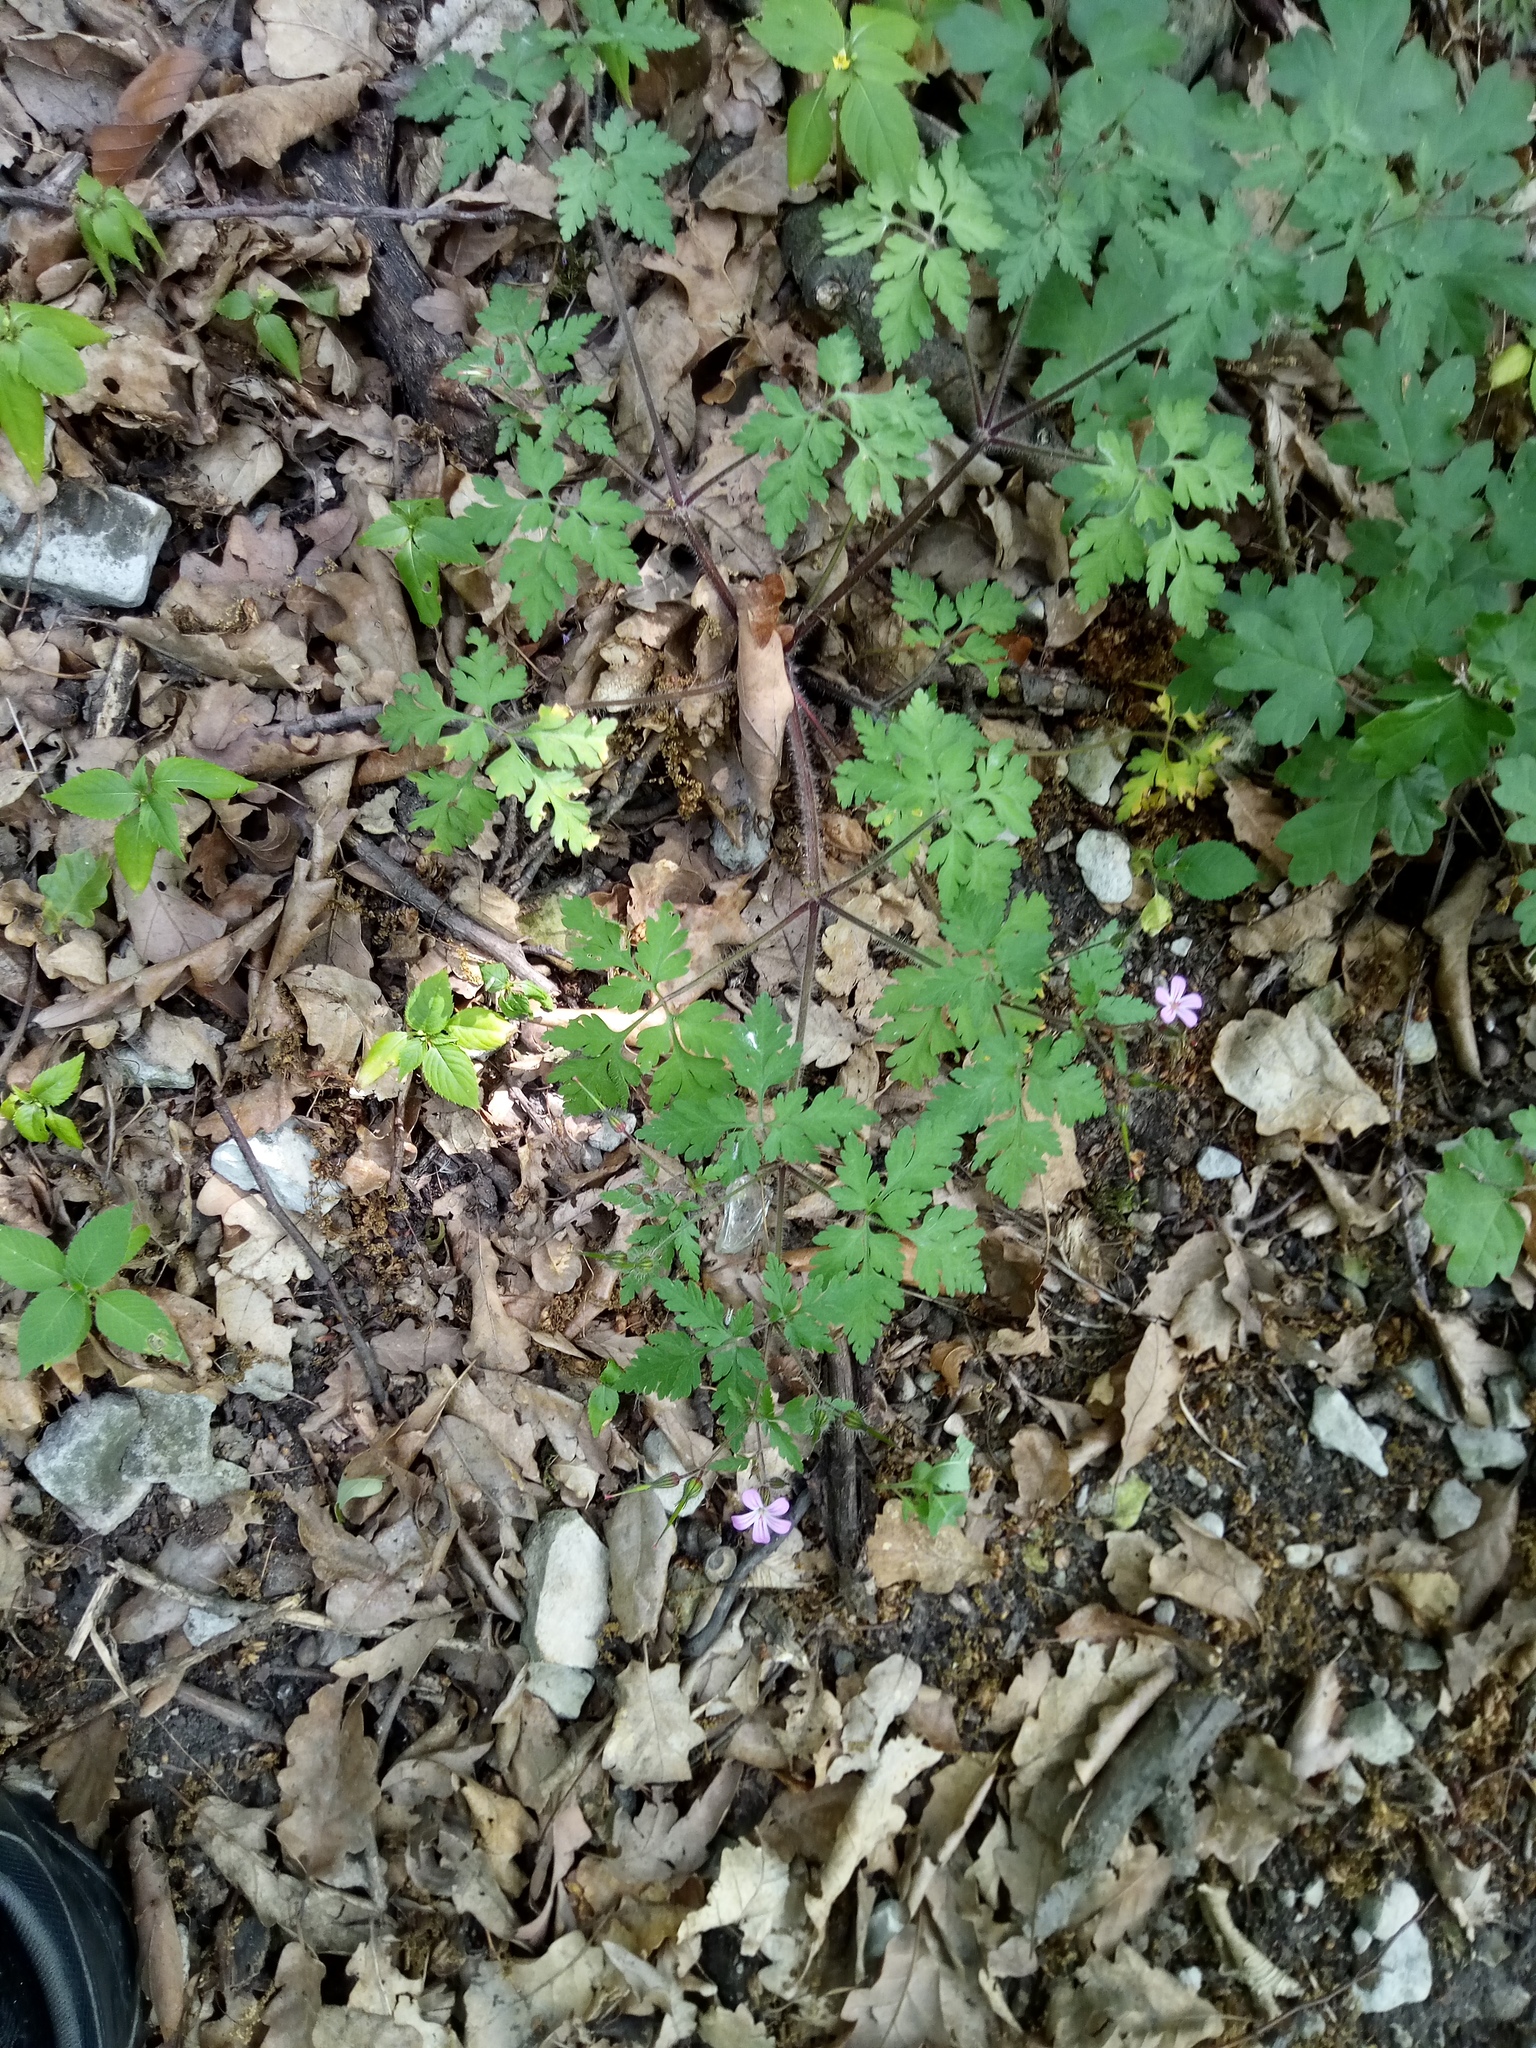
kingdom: Plantae
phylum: Tracheophyta
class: Magnoliopsida
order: Geraniales
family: Geraniaceae
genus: Geranium
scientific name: Geranium robertianum
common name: Herb-robert
